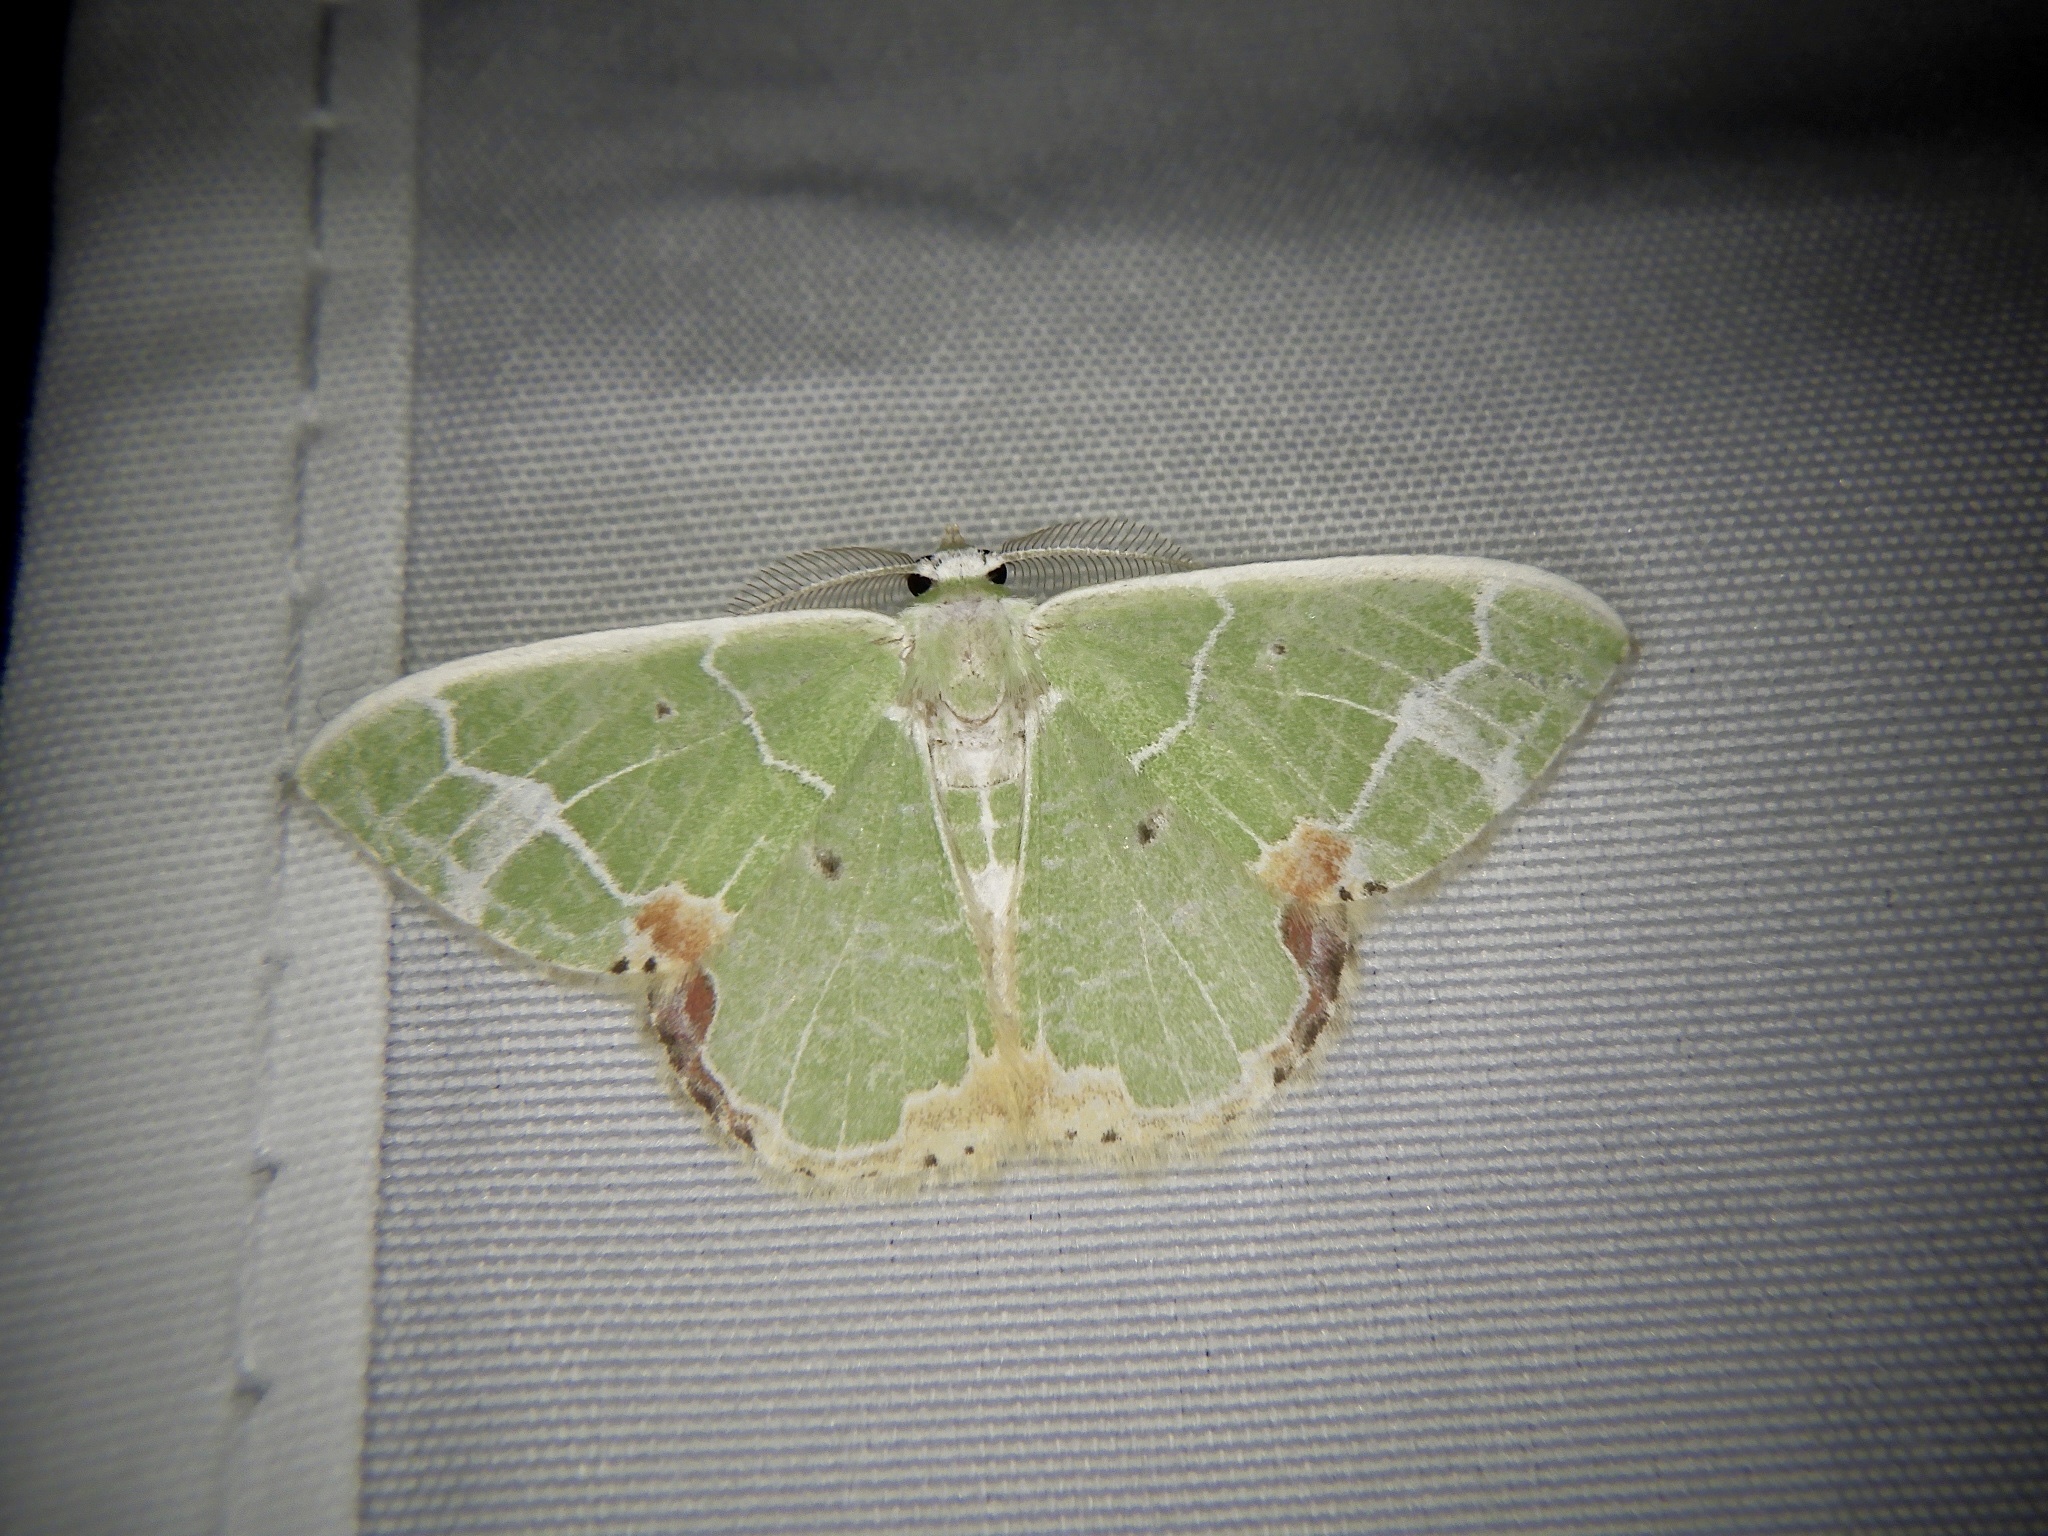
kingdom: Animalia
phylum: Arthropoda
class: Insecta
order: Lepidoptera
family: Geometridae
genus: Comibaena
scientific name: Comibaena nigromacularia
